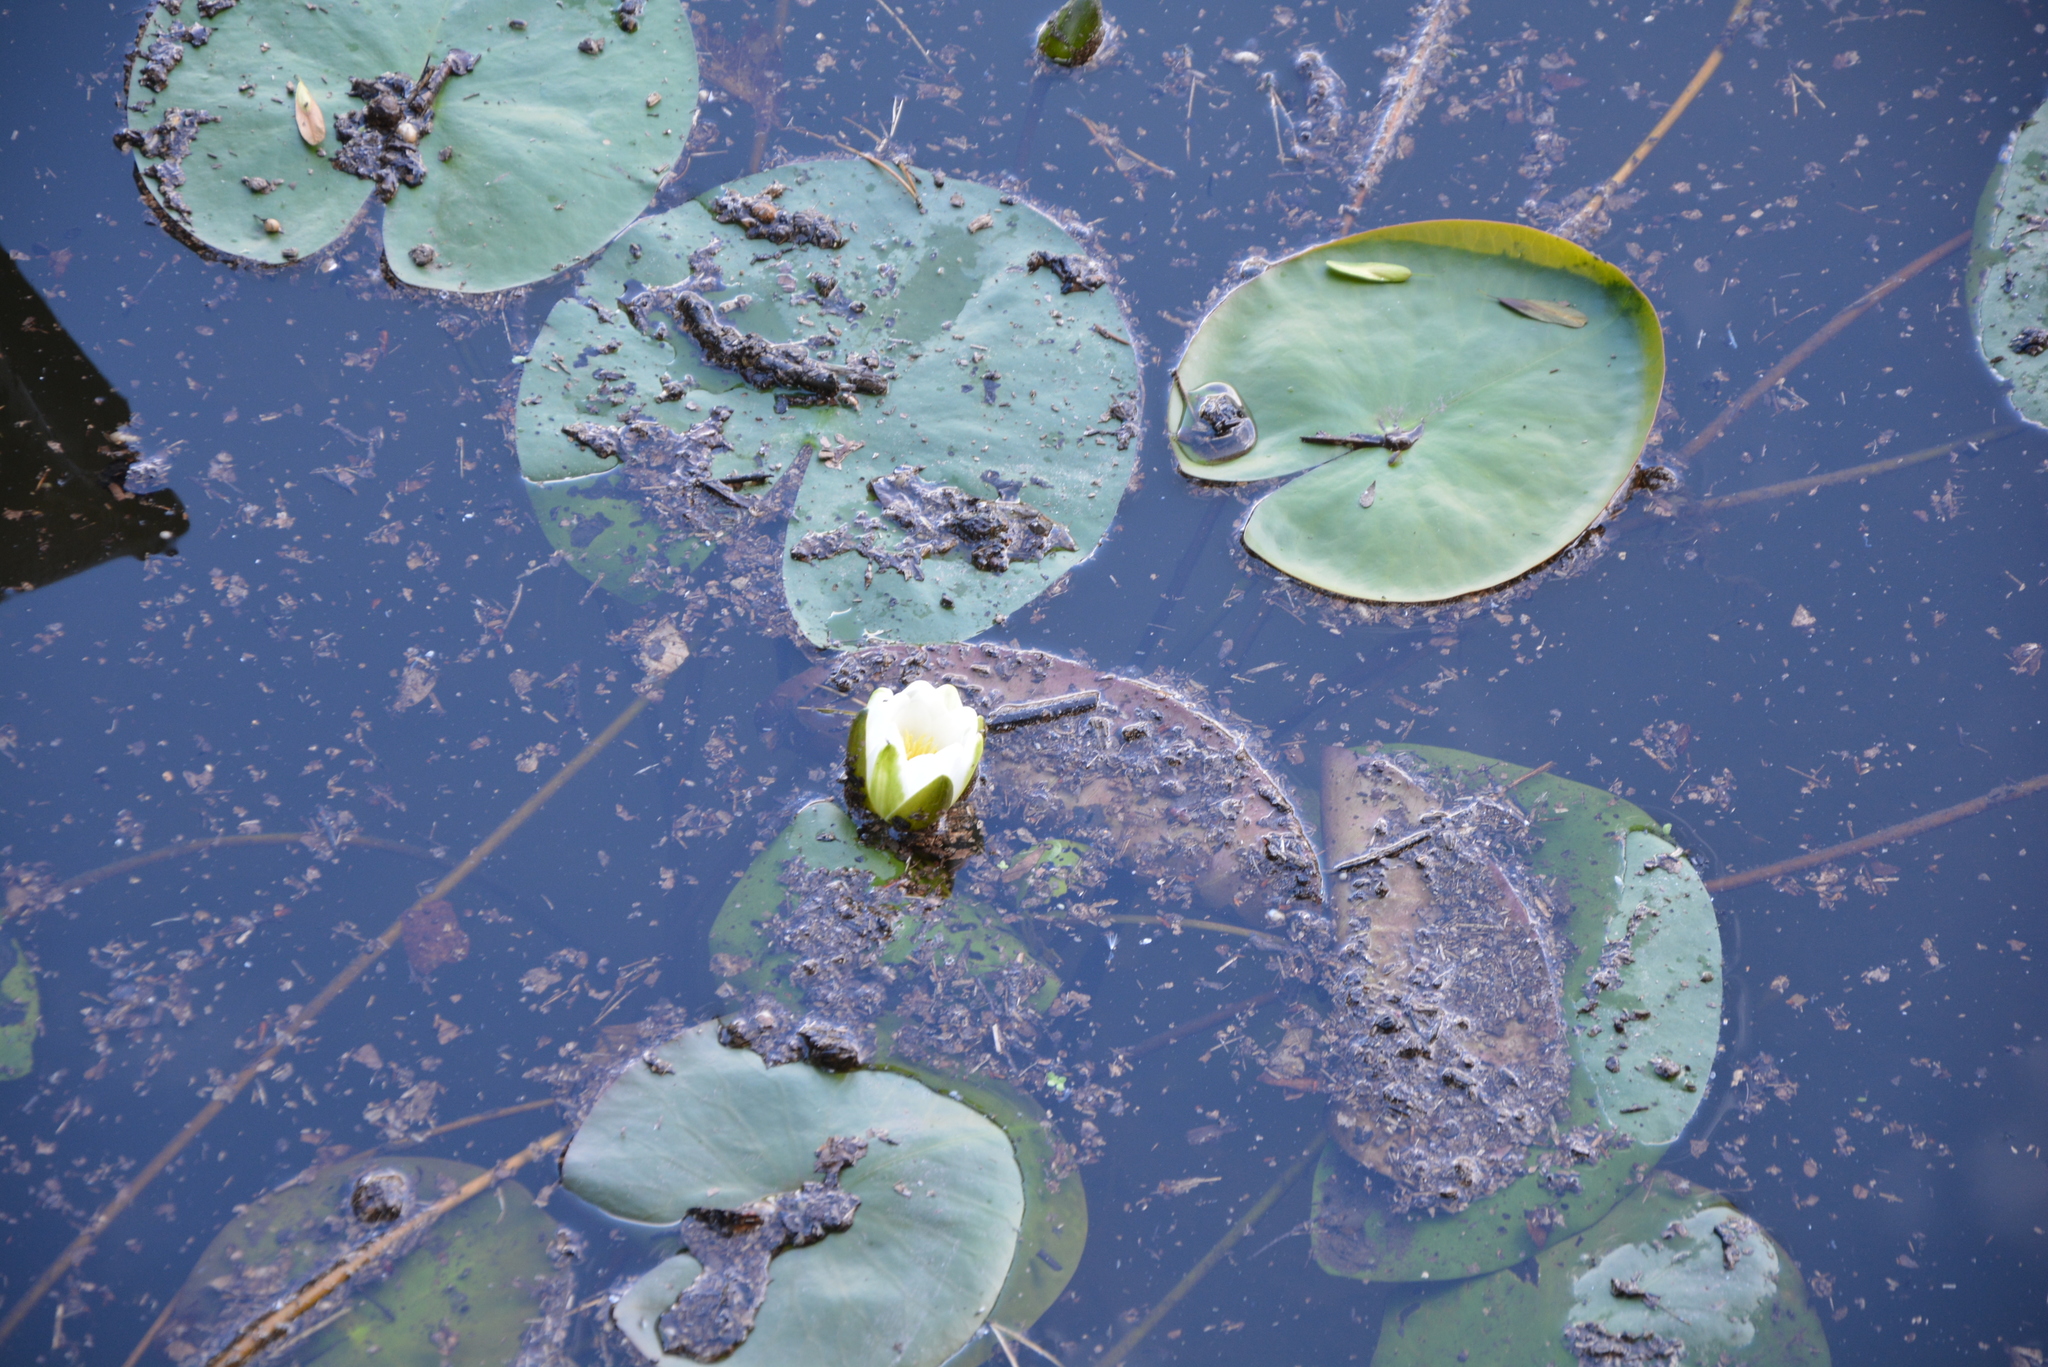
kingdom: Plantae
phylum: Tracheophyta
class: Magnoliopsida
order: Nymphaeales
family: Nymphaeaceae
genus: Nymphaea
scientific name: Nymphaea alba
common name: White water-lily
